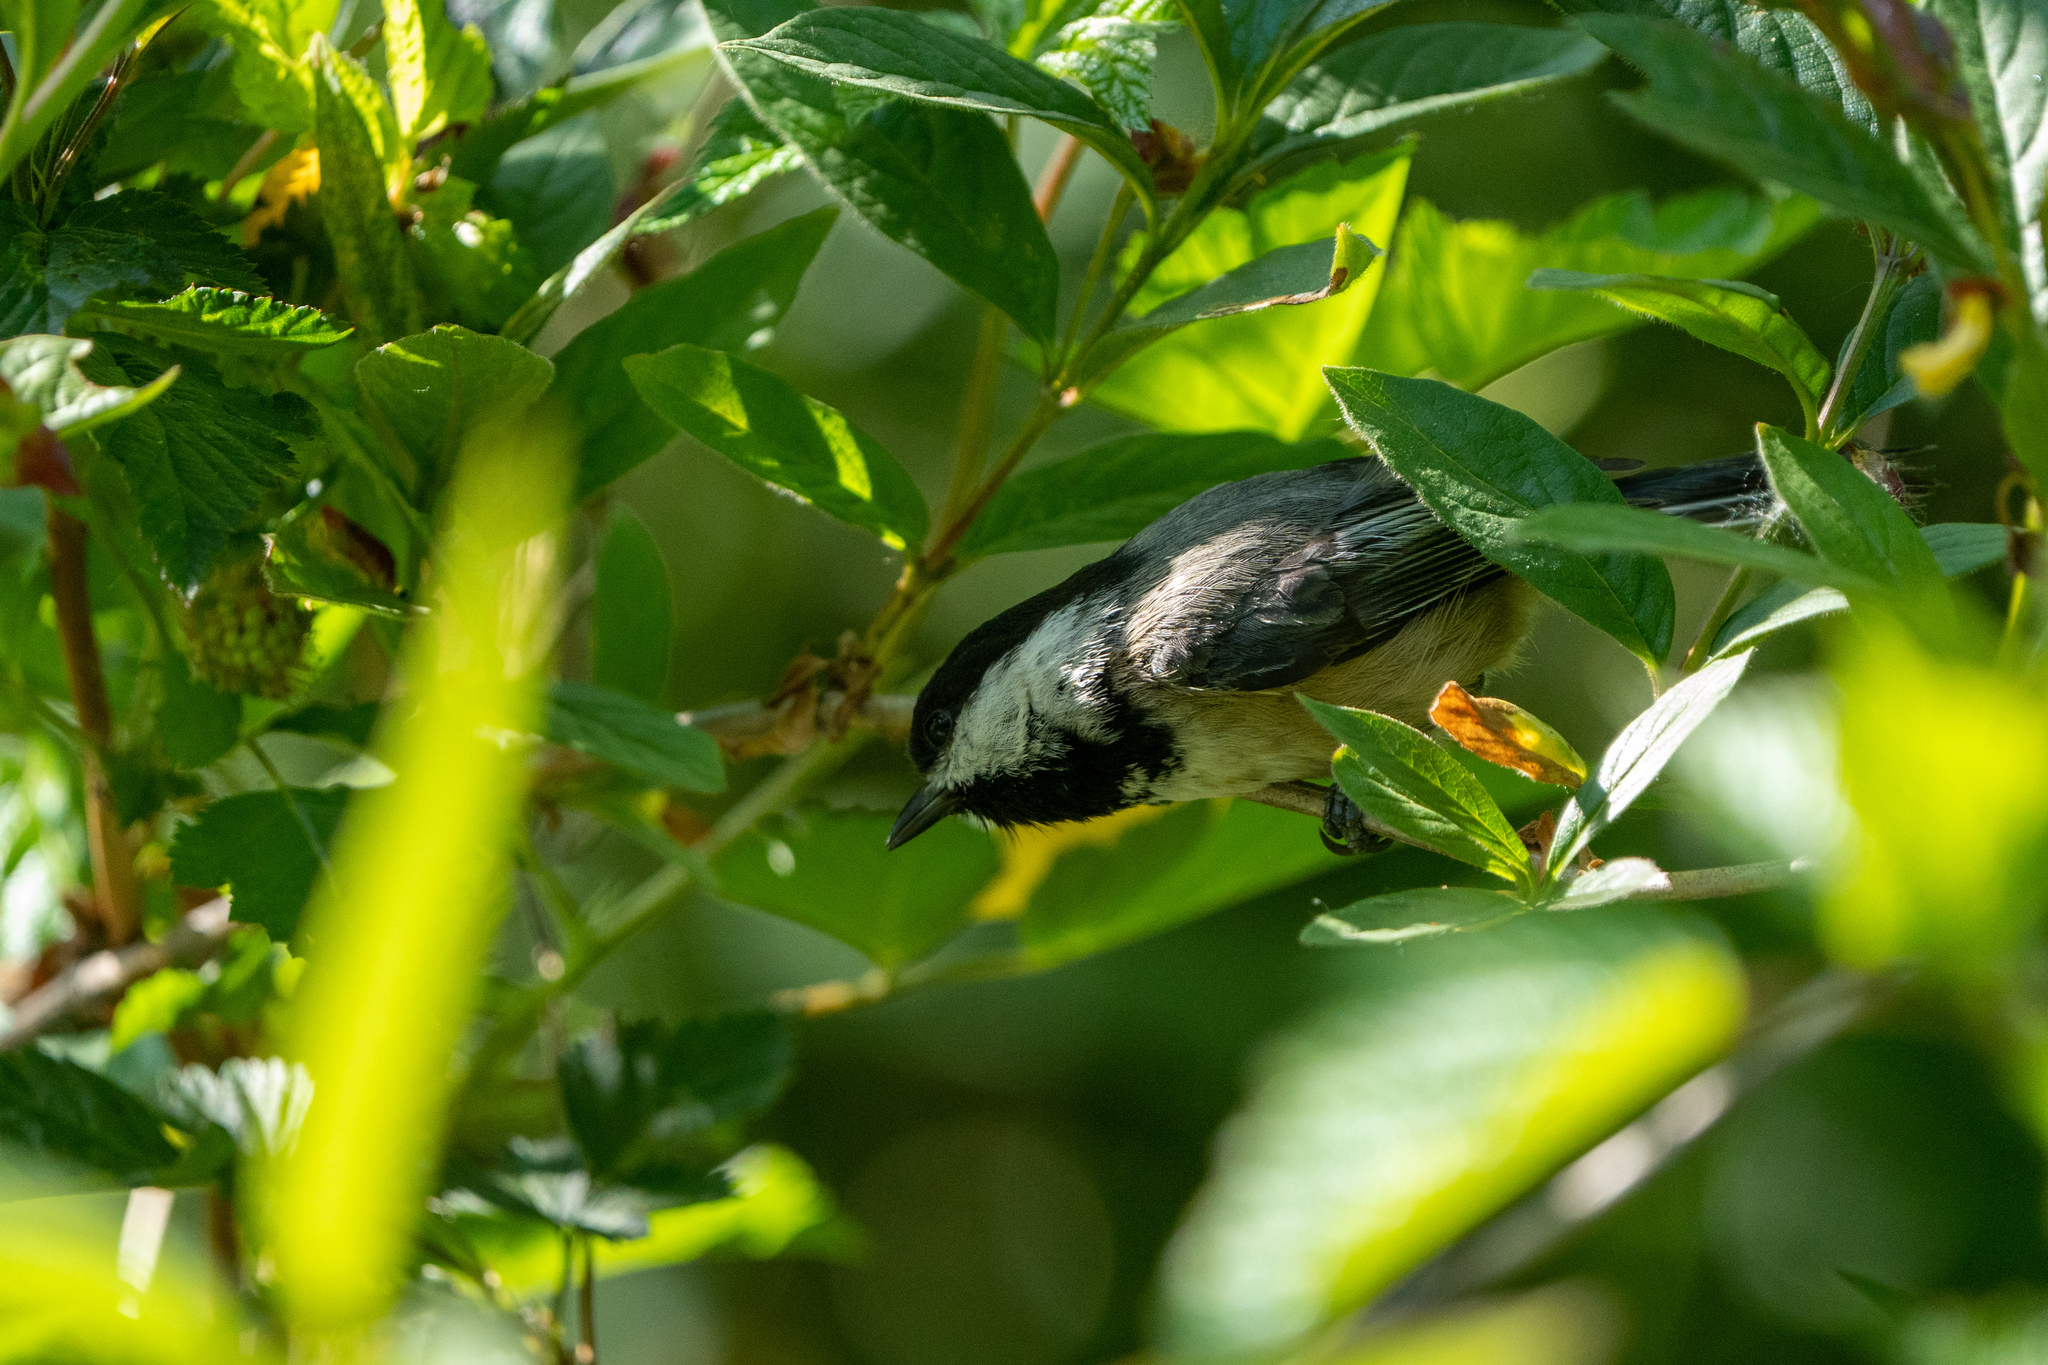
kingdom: Animalia
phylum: Chordata
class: Aves
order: Passeriformes
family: Paridae
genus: Poecile
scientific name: Poecile atricapillus
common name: Black-capped chickadee
